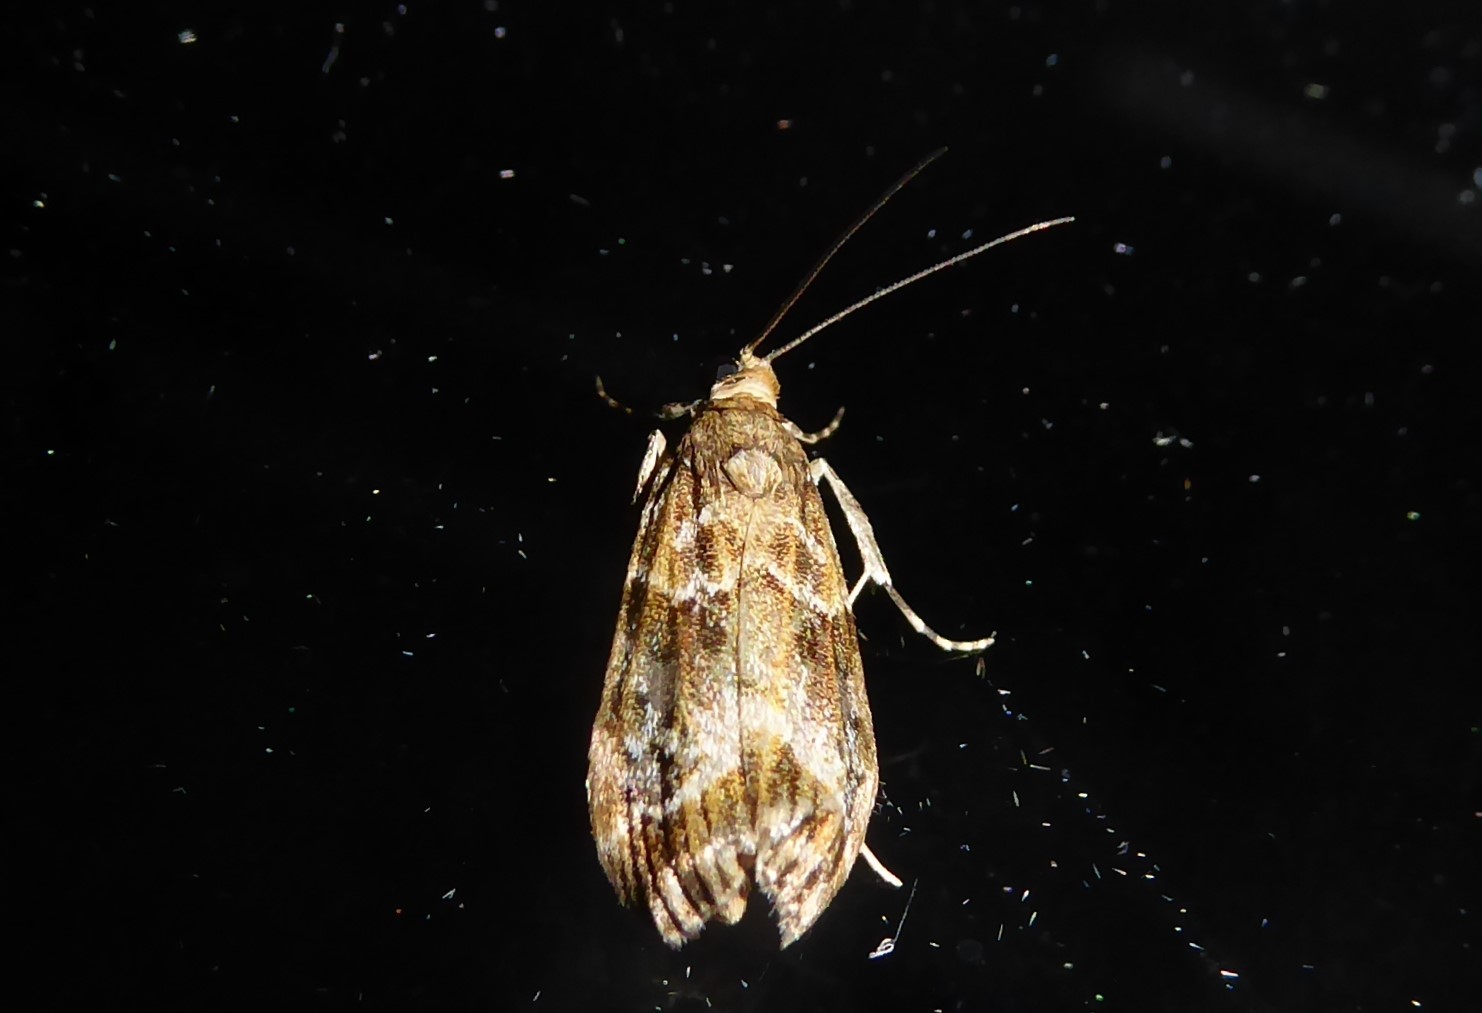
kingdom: Animalia
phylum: Arthropoda
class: Insecta
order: Lepidoptera
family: Crambidae
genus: Eudonia
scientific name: Eudonia legnota
